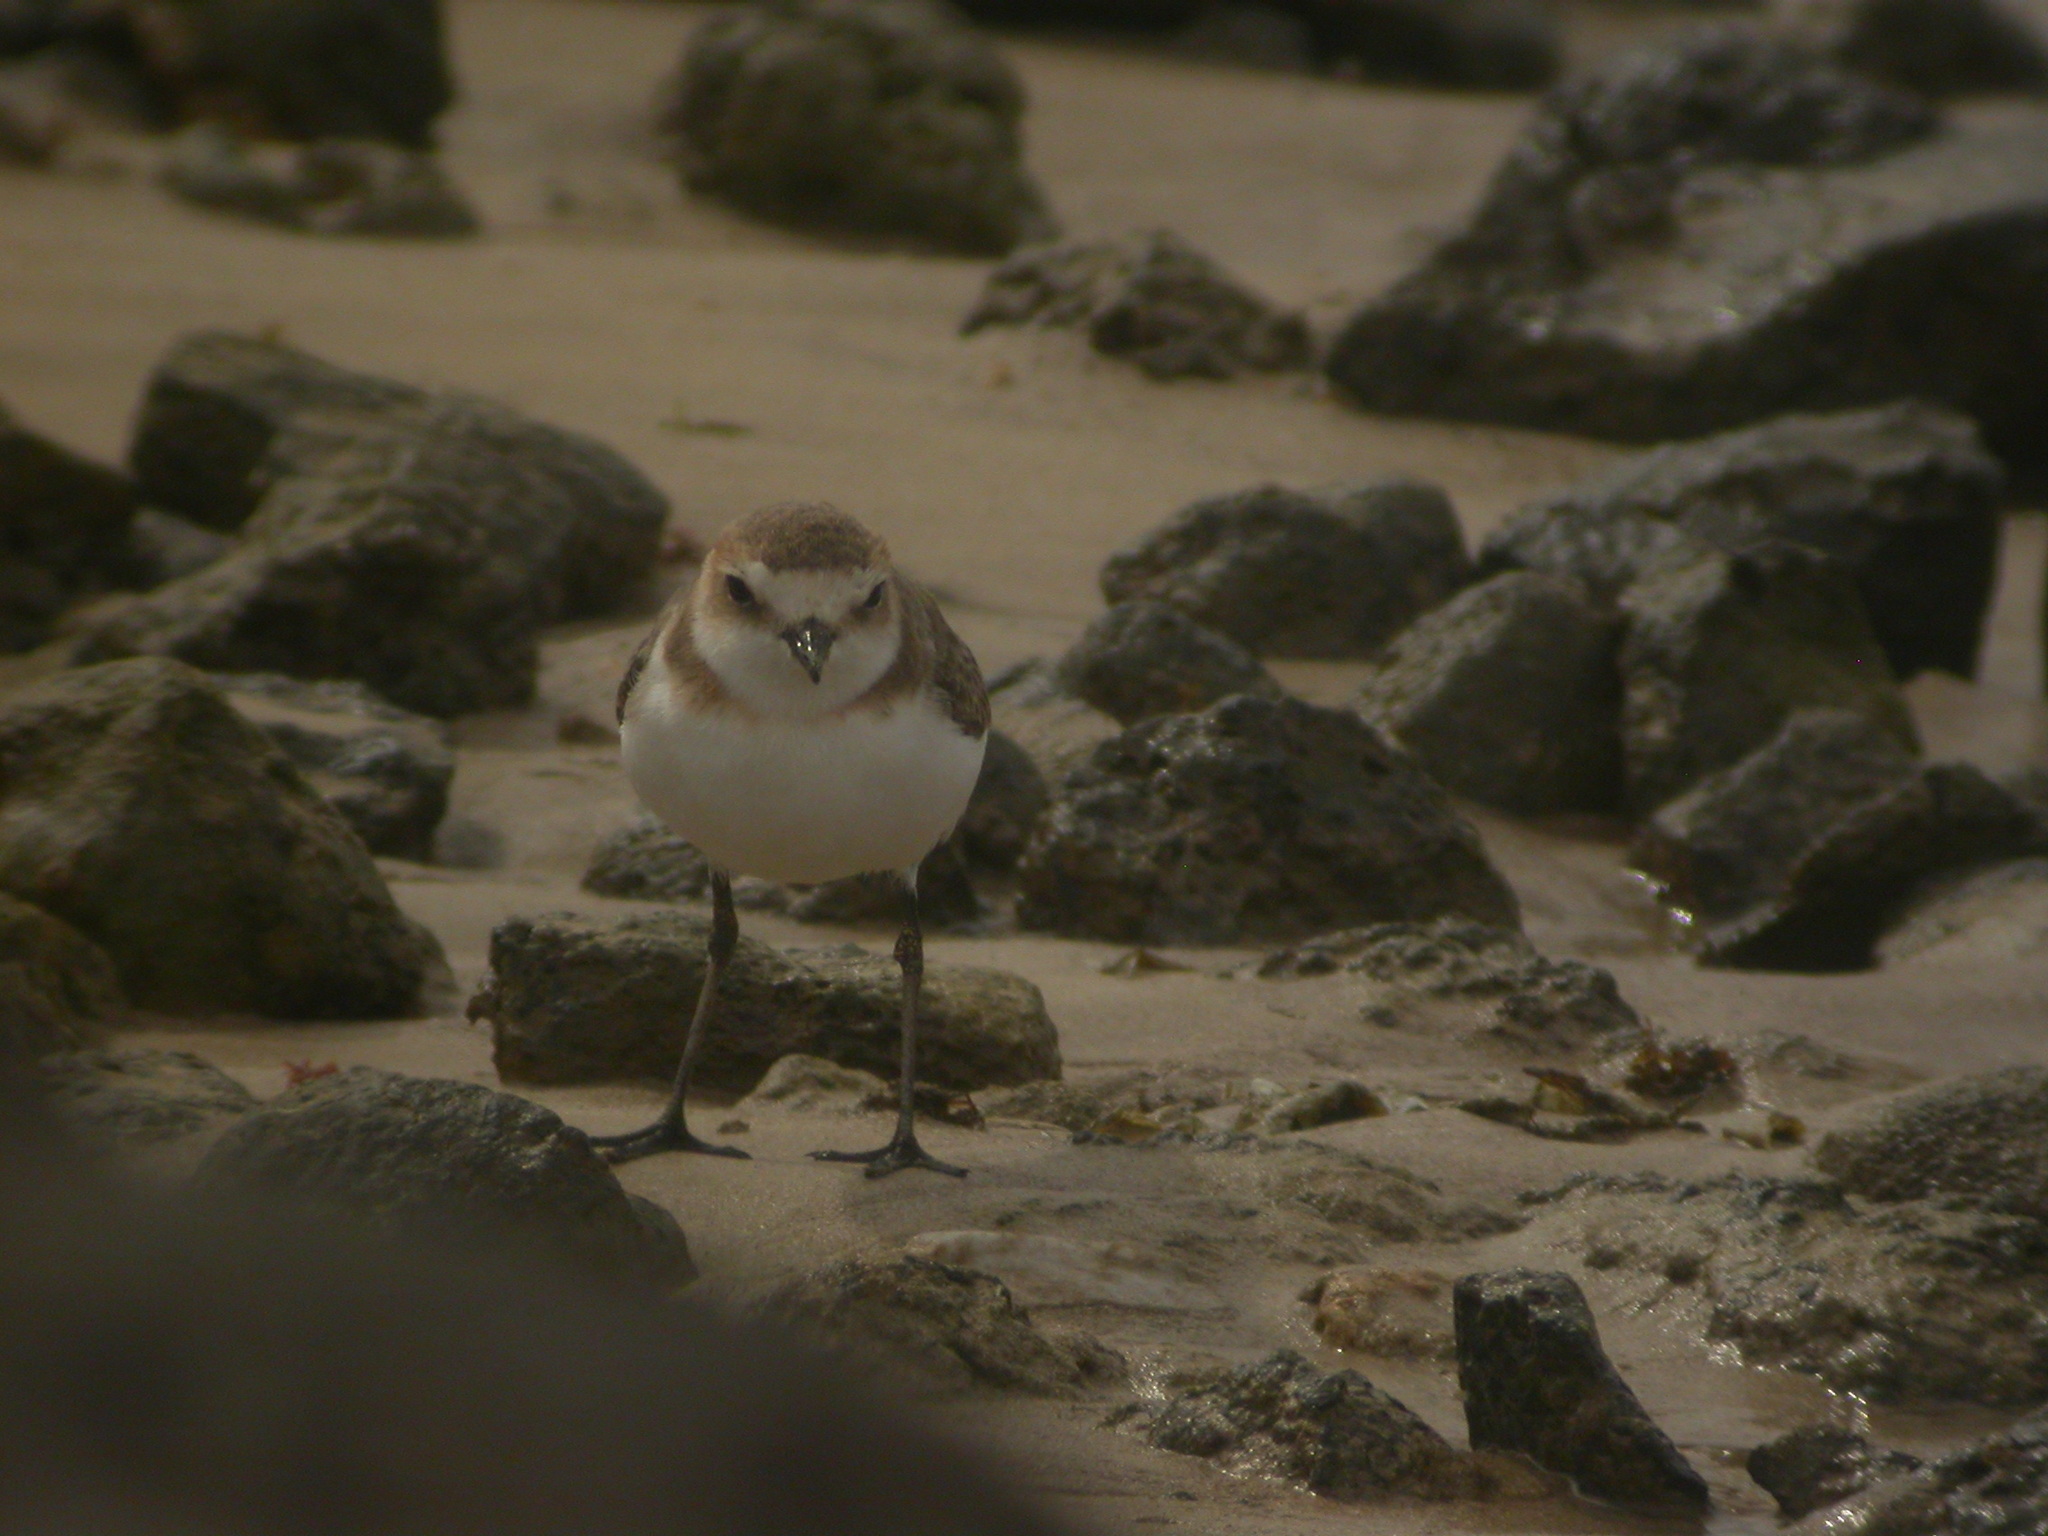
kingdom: Animalia
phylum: Chordata
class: Aves
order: Charadriiformes
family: Charadriidae
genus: Charadrius
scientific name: Charadrius alexandrinus
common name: Kentish plover
